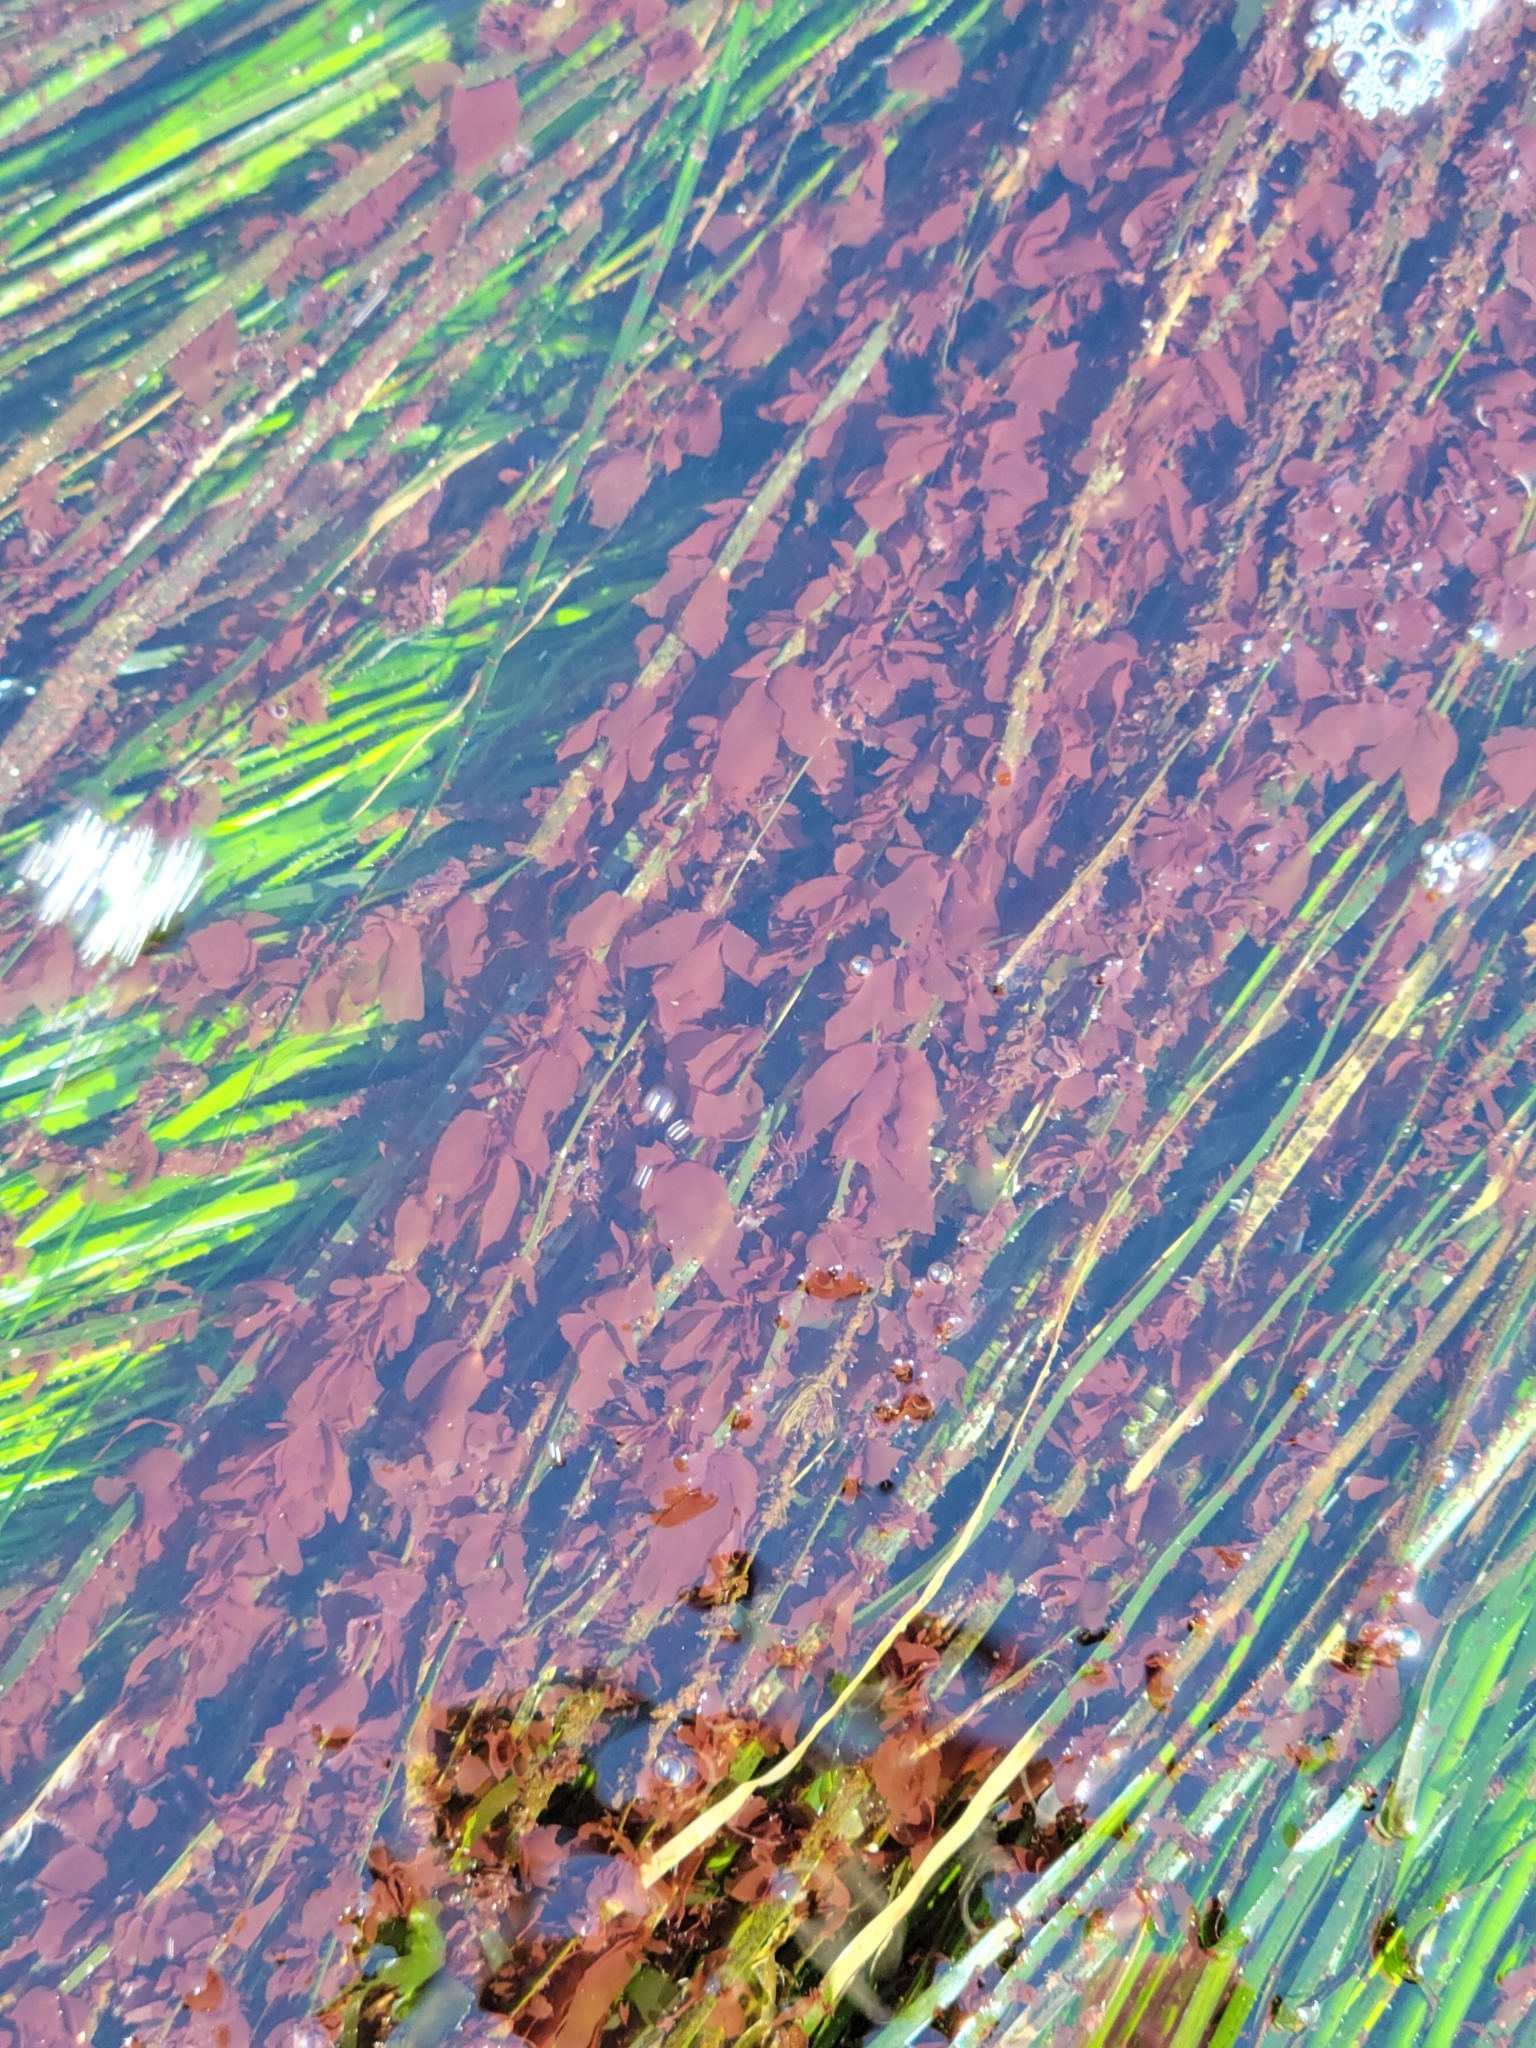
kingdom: Plantae
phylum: Rhodophyta
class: Compsopogonophyceae
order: Erythropeltidales
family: Erythrotrichiaceae
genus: Smithora
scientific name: Smithora naiadum
